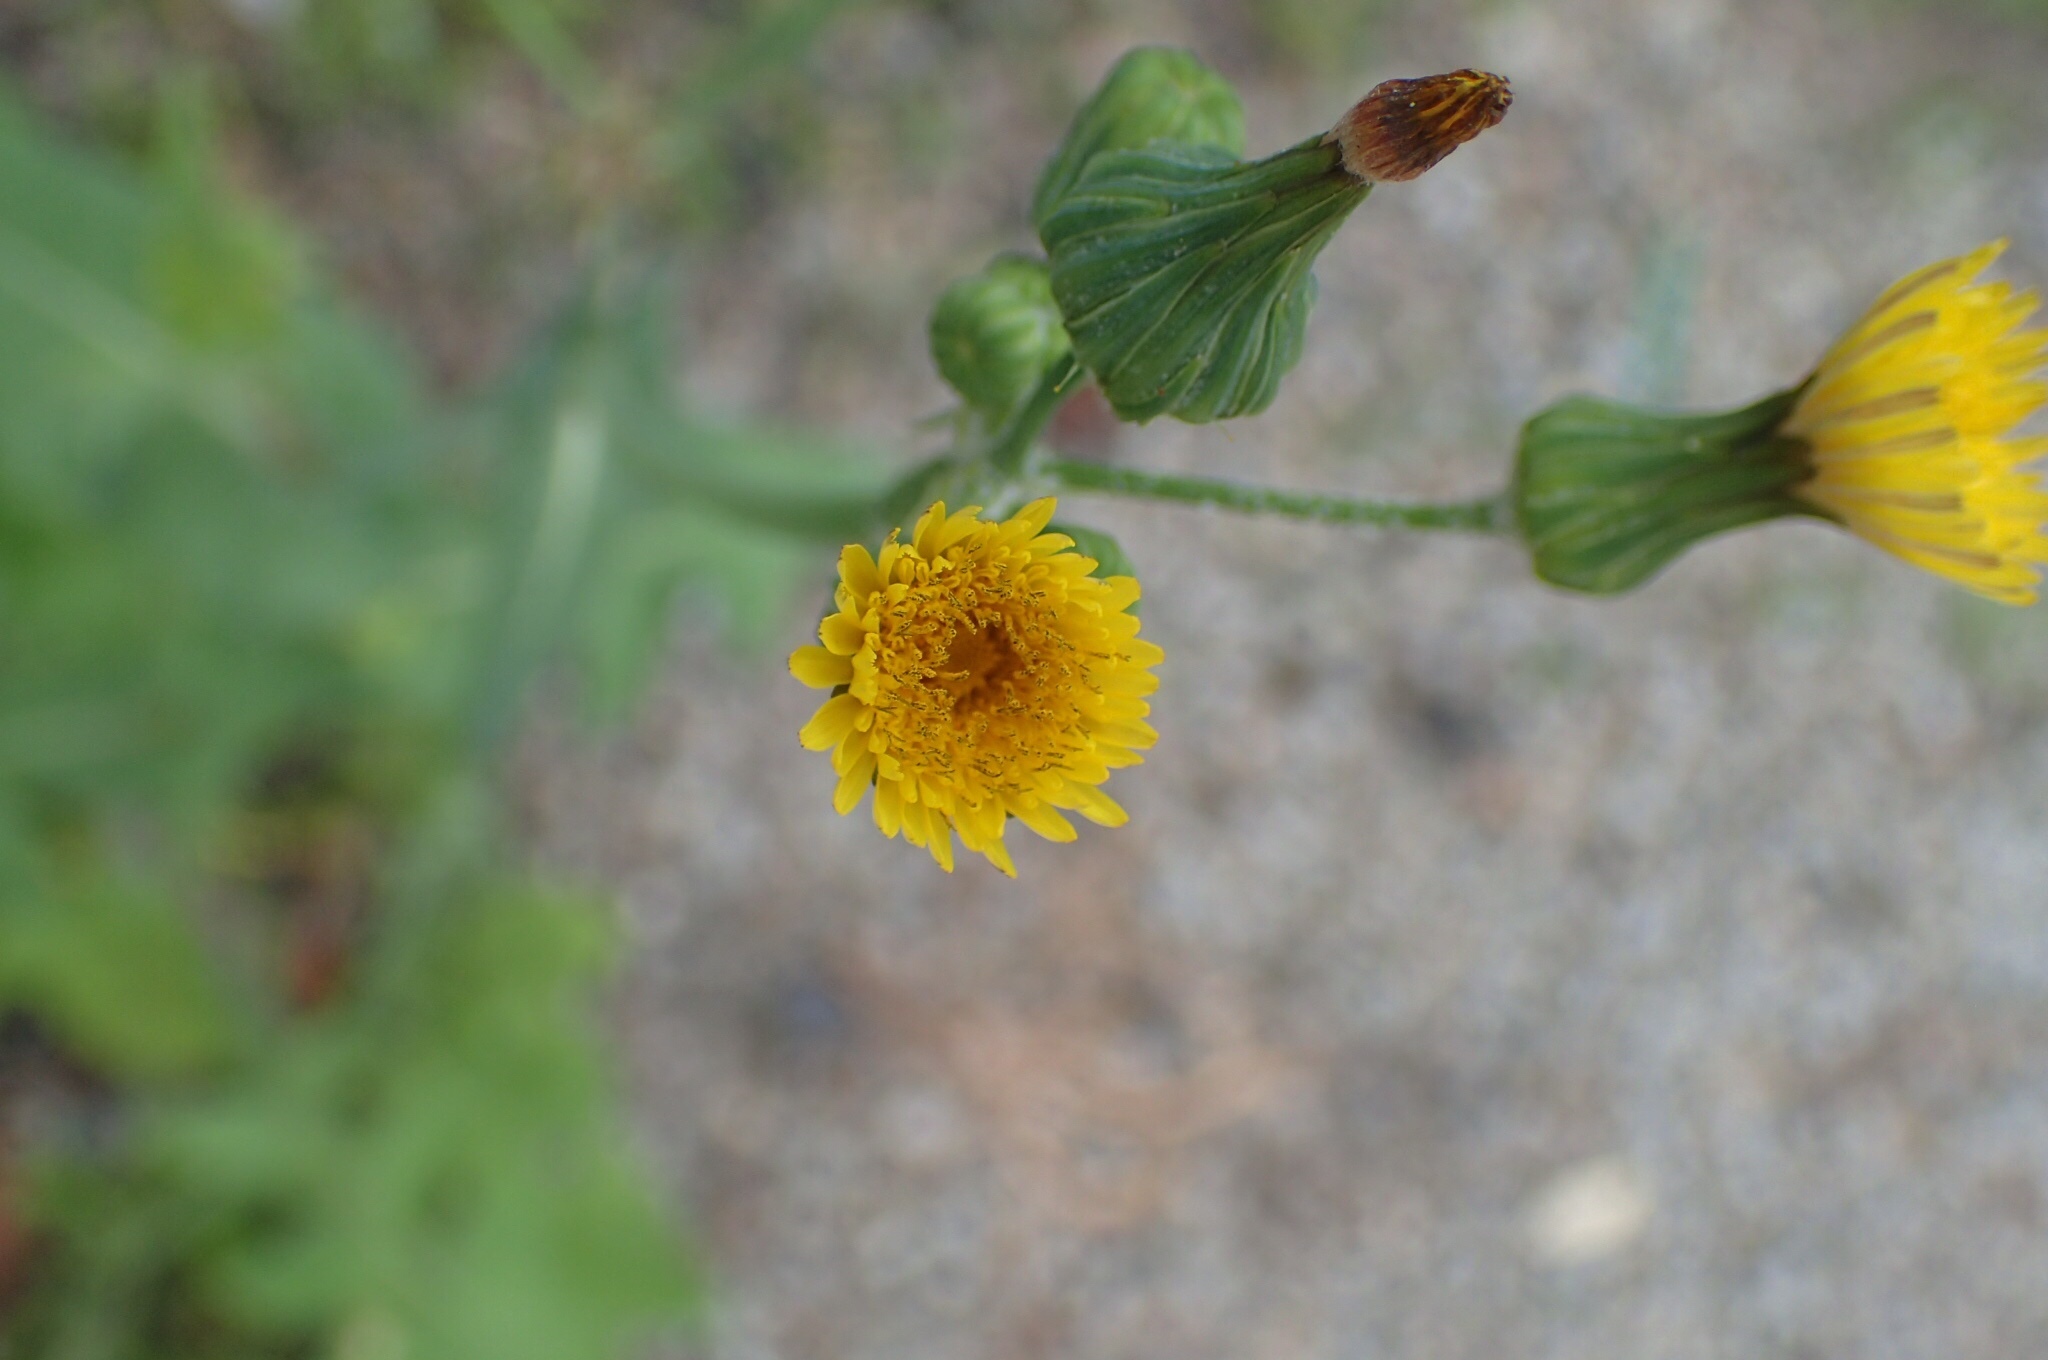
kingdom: Plantae
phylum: Tracheophyta
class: Magnoliopsida
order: Asterales
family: Asteraceae
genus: Sonchus
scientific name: Sonchus oleraceus
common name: Common sowthistle
